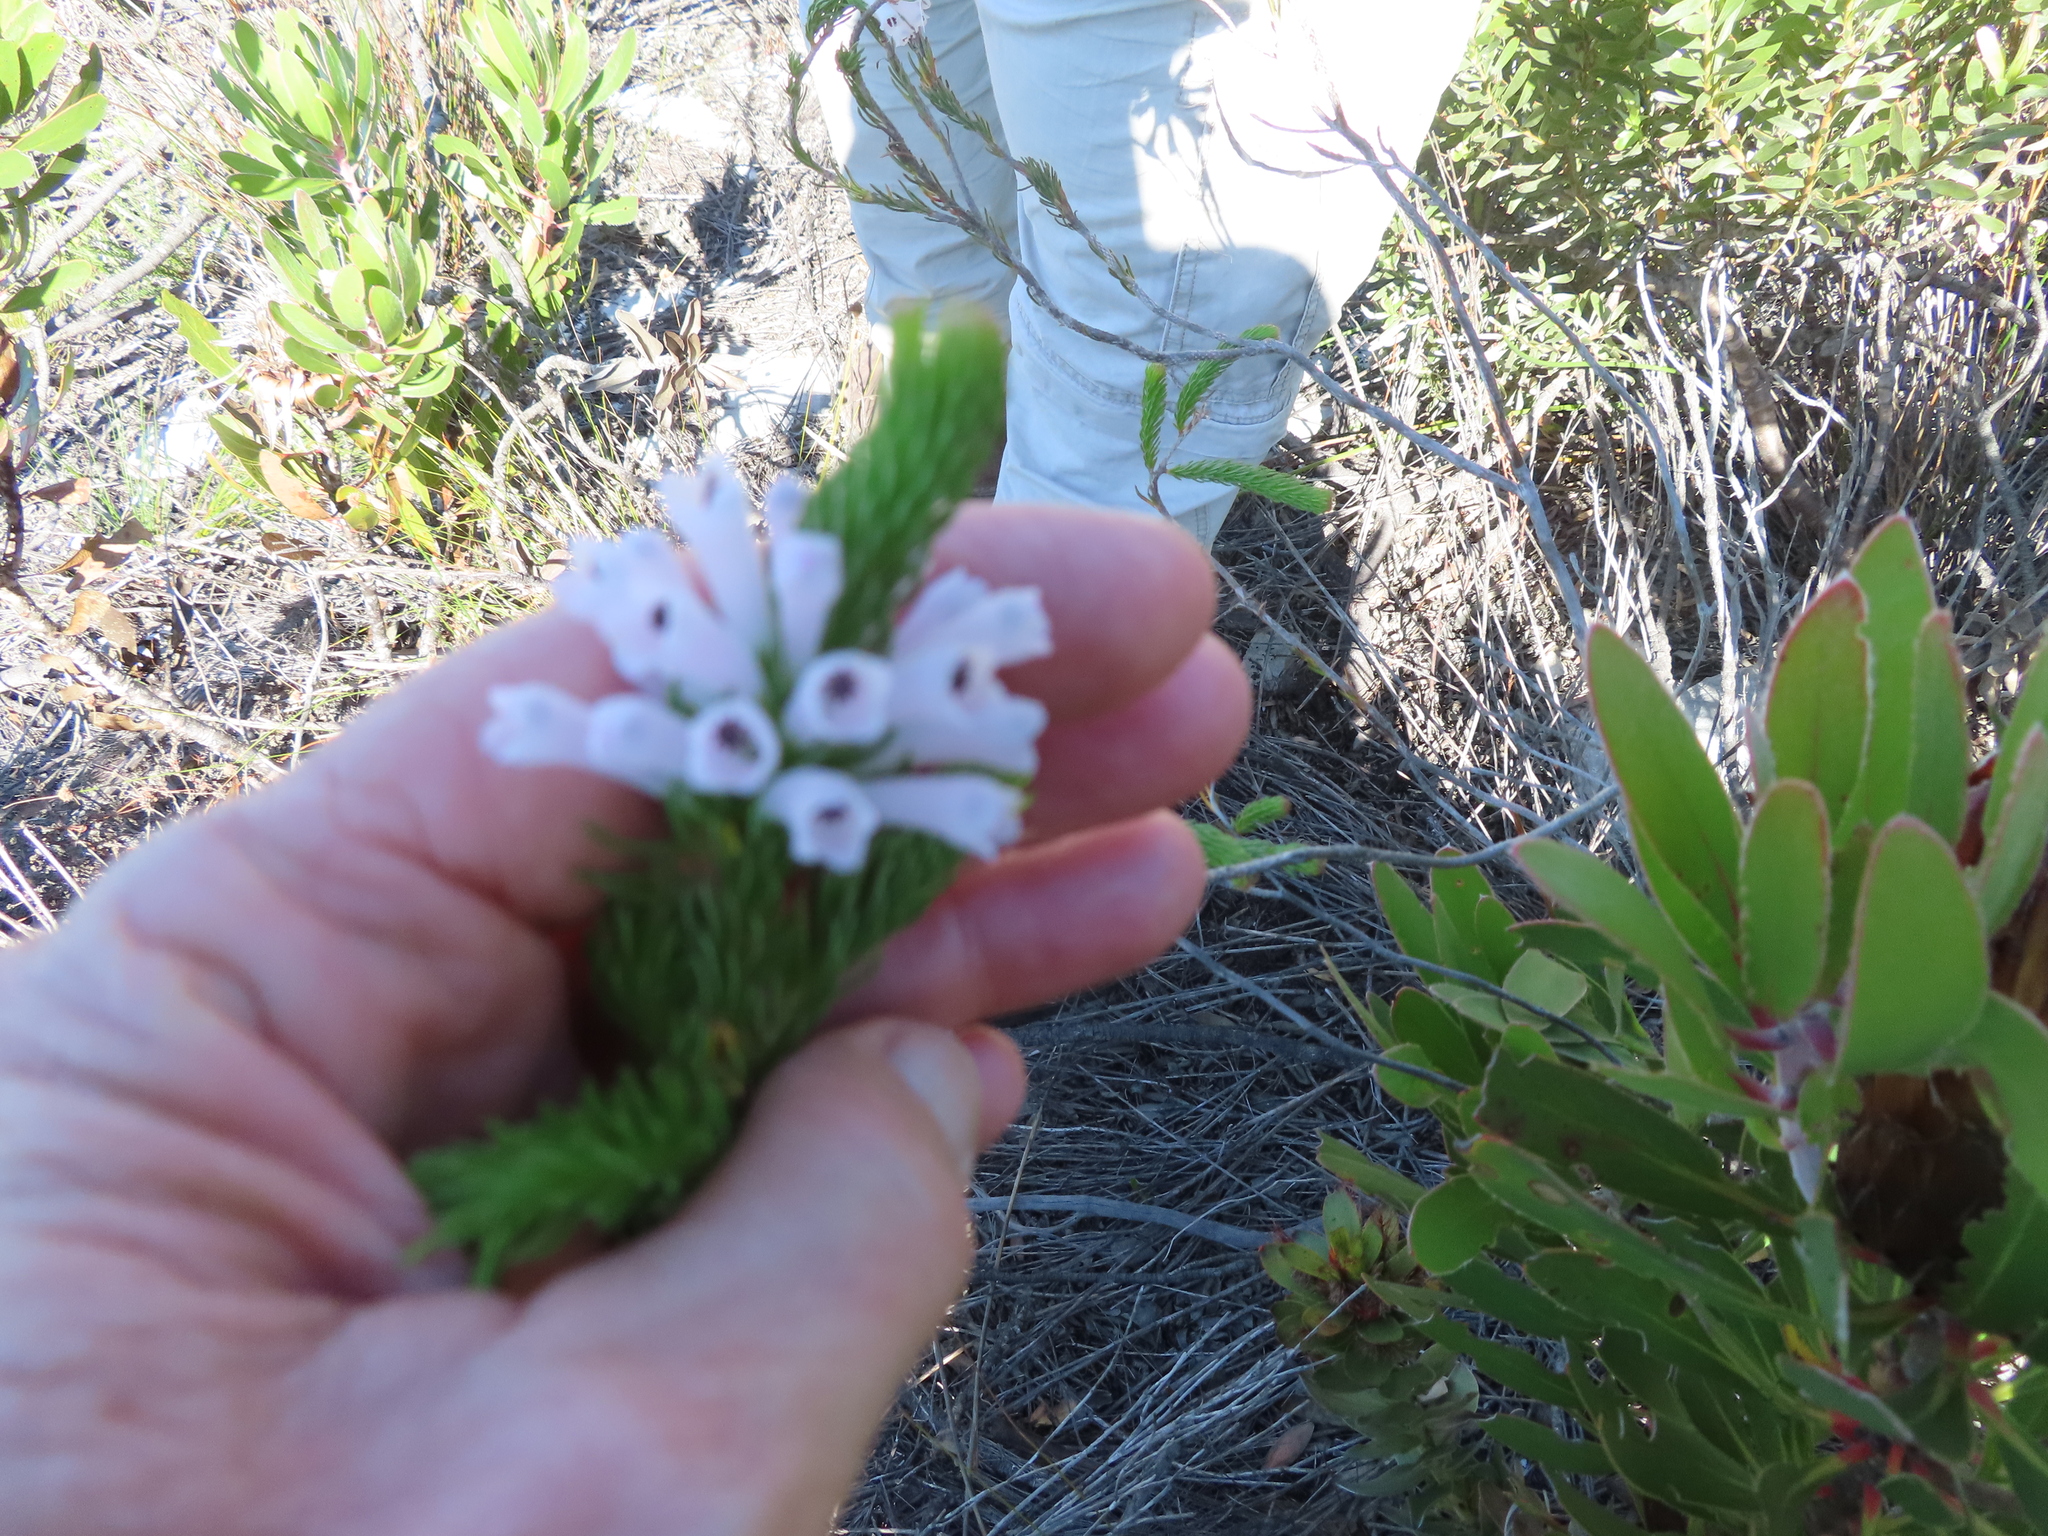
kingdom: Plantae
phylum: Tracheophyta
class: Magnoliopsida
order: Ericales
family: Ericaceae
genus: Erica
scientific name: Erica vestita
